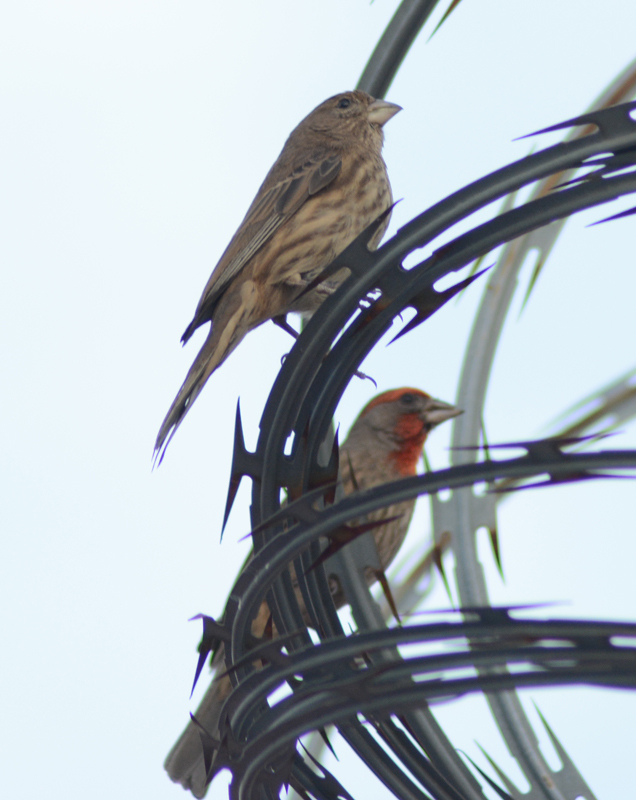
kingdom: Animalia
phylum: Chordata
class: Aves
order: Passeriformes
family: Fringillidae
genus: Haemorhous
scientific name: Haemorhous mexicanus
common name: House finch
